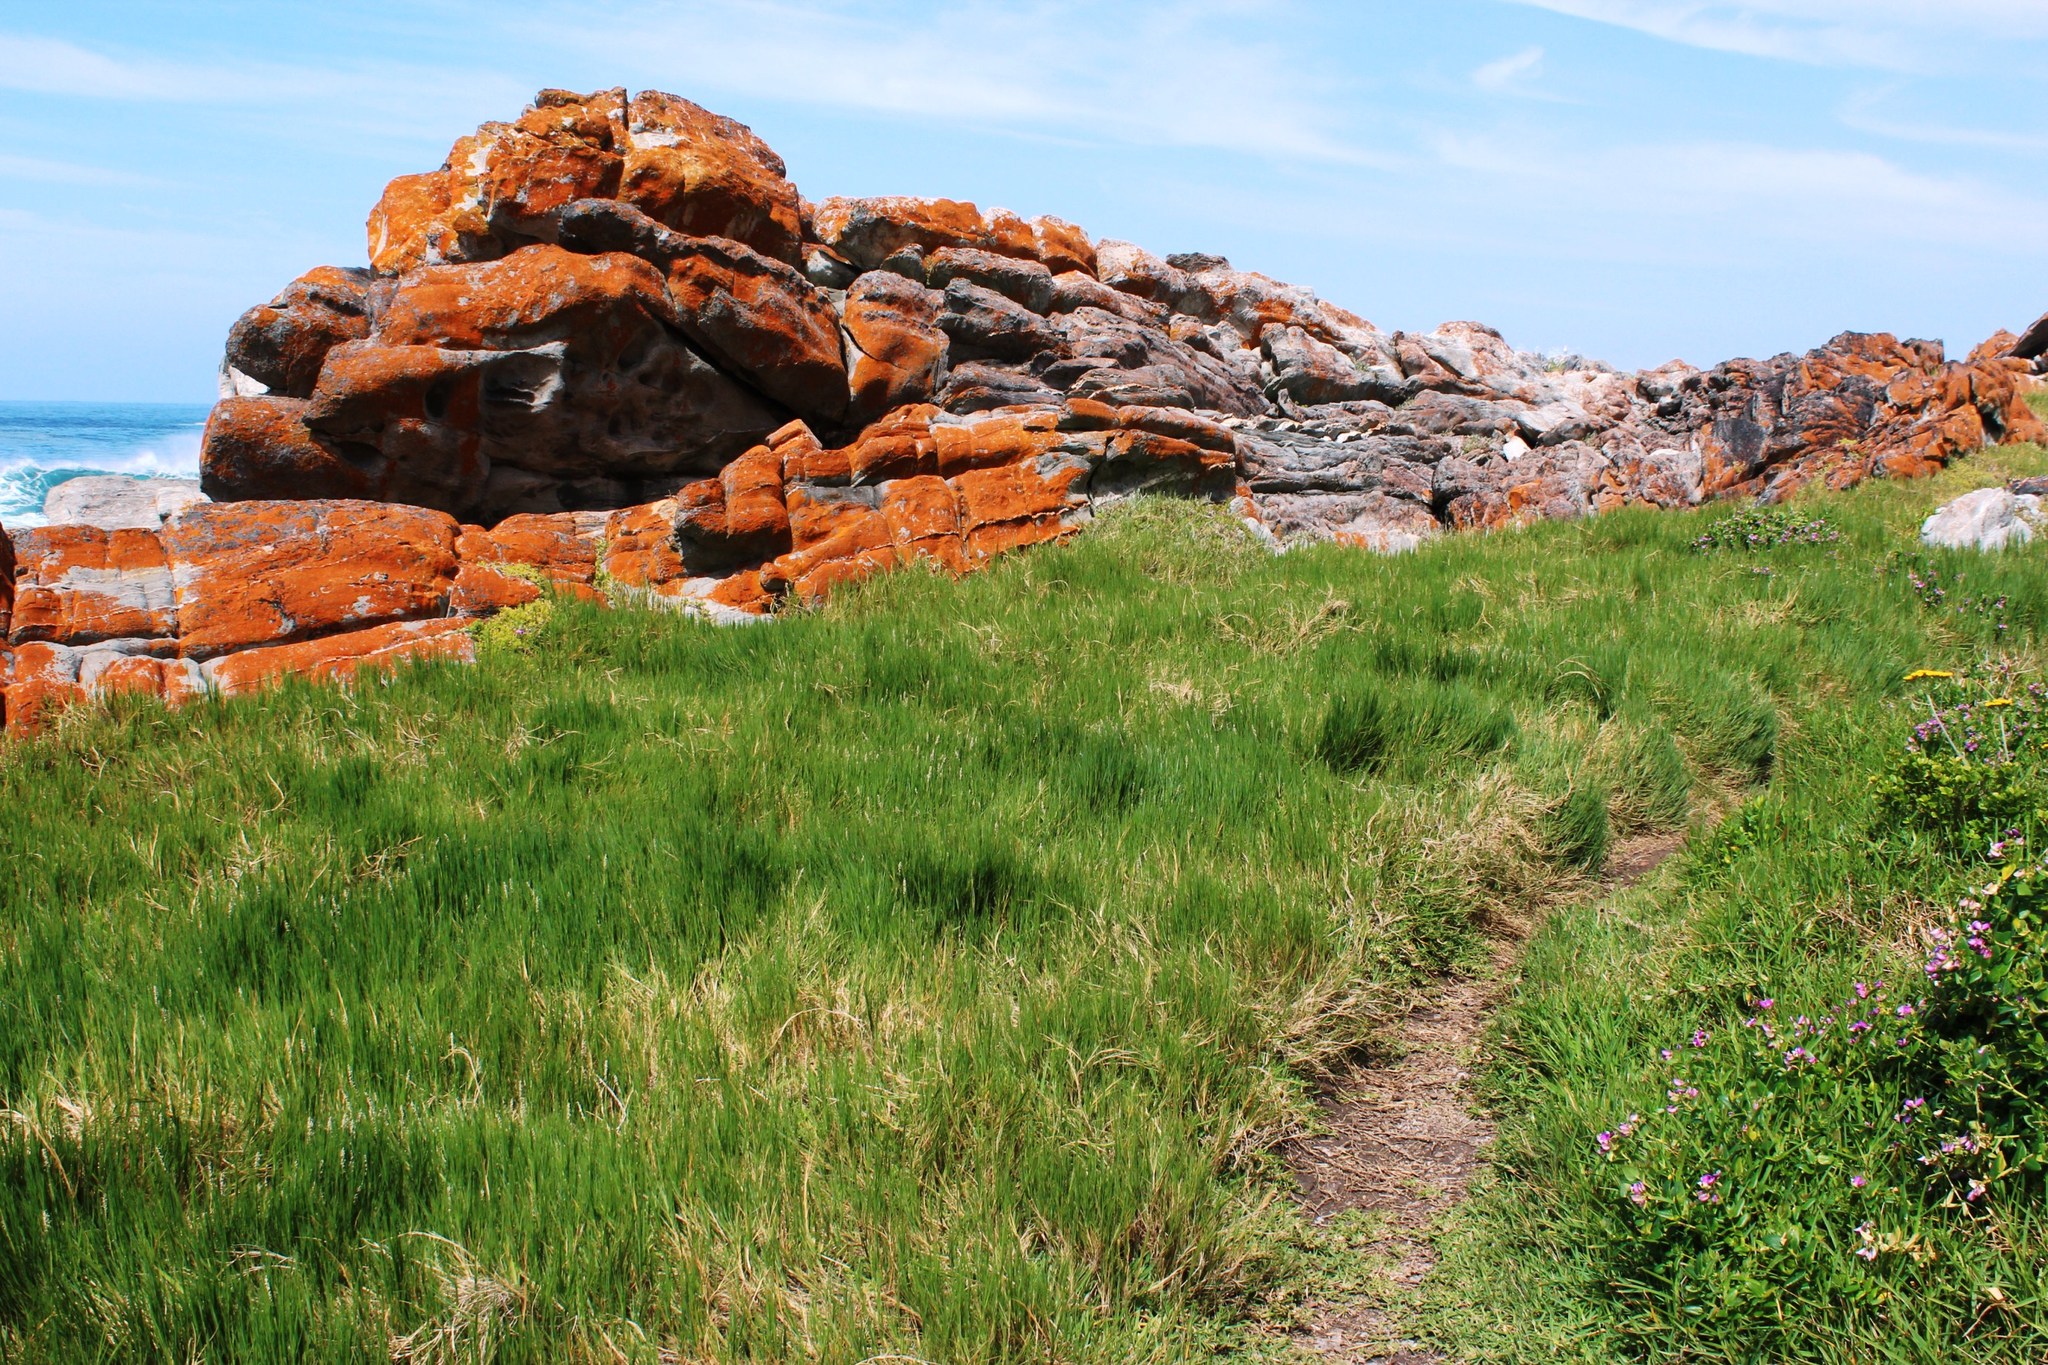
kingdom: Plantae
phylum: Tracheophyta
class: Liliopsida
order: Poales
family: Poaceae
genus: Sporobolus
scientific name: Sporobolus virginicus
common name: Beach dropseed
